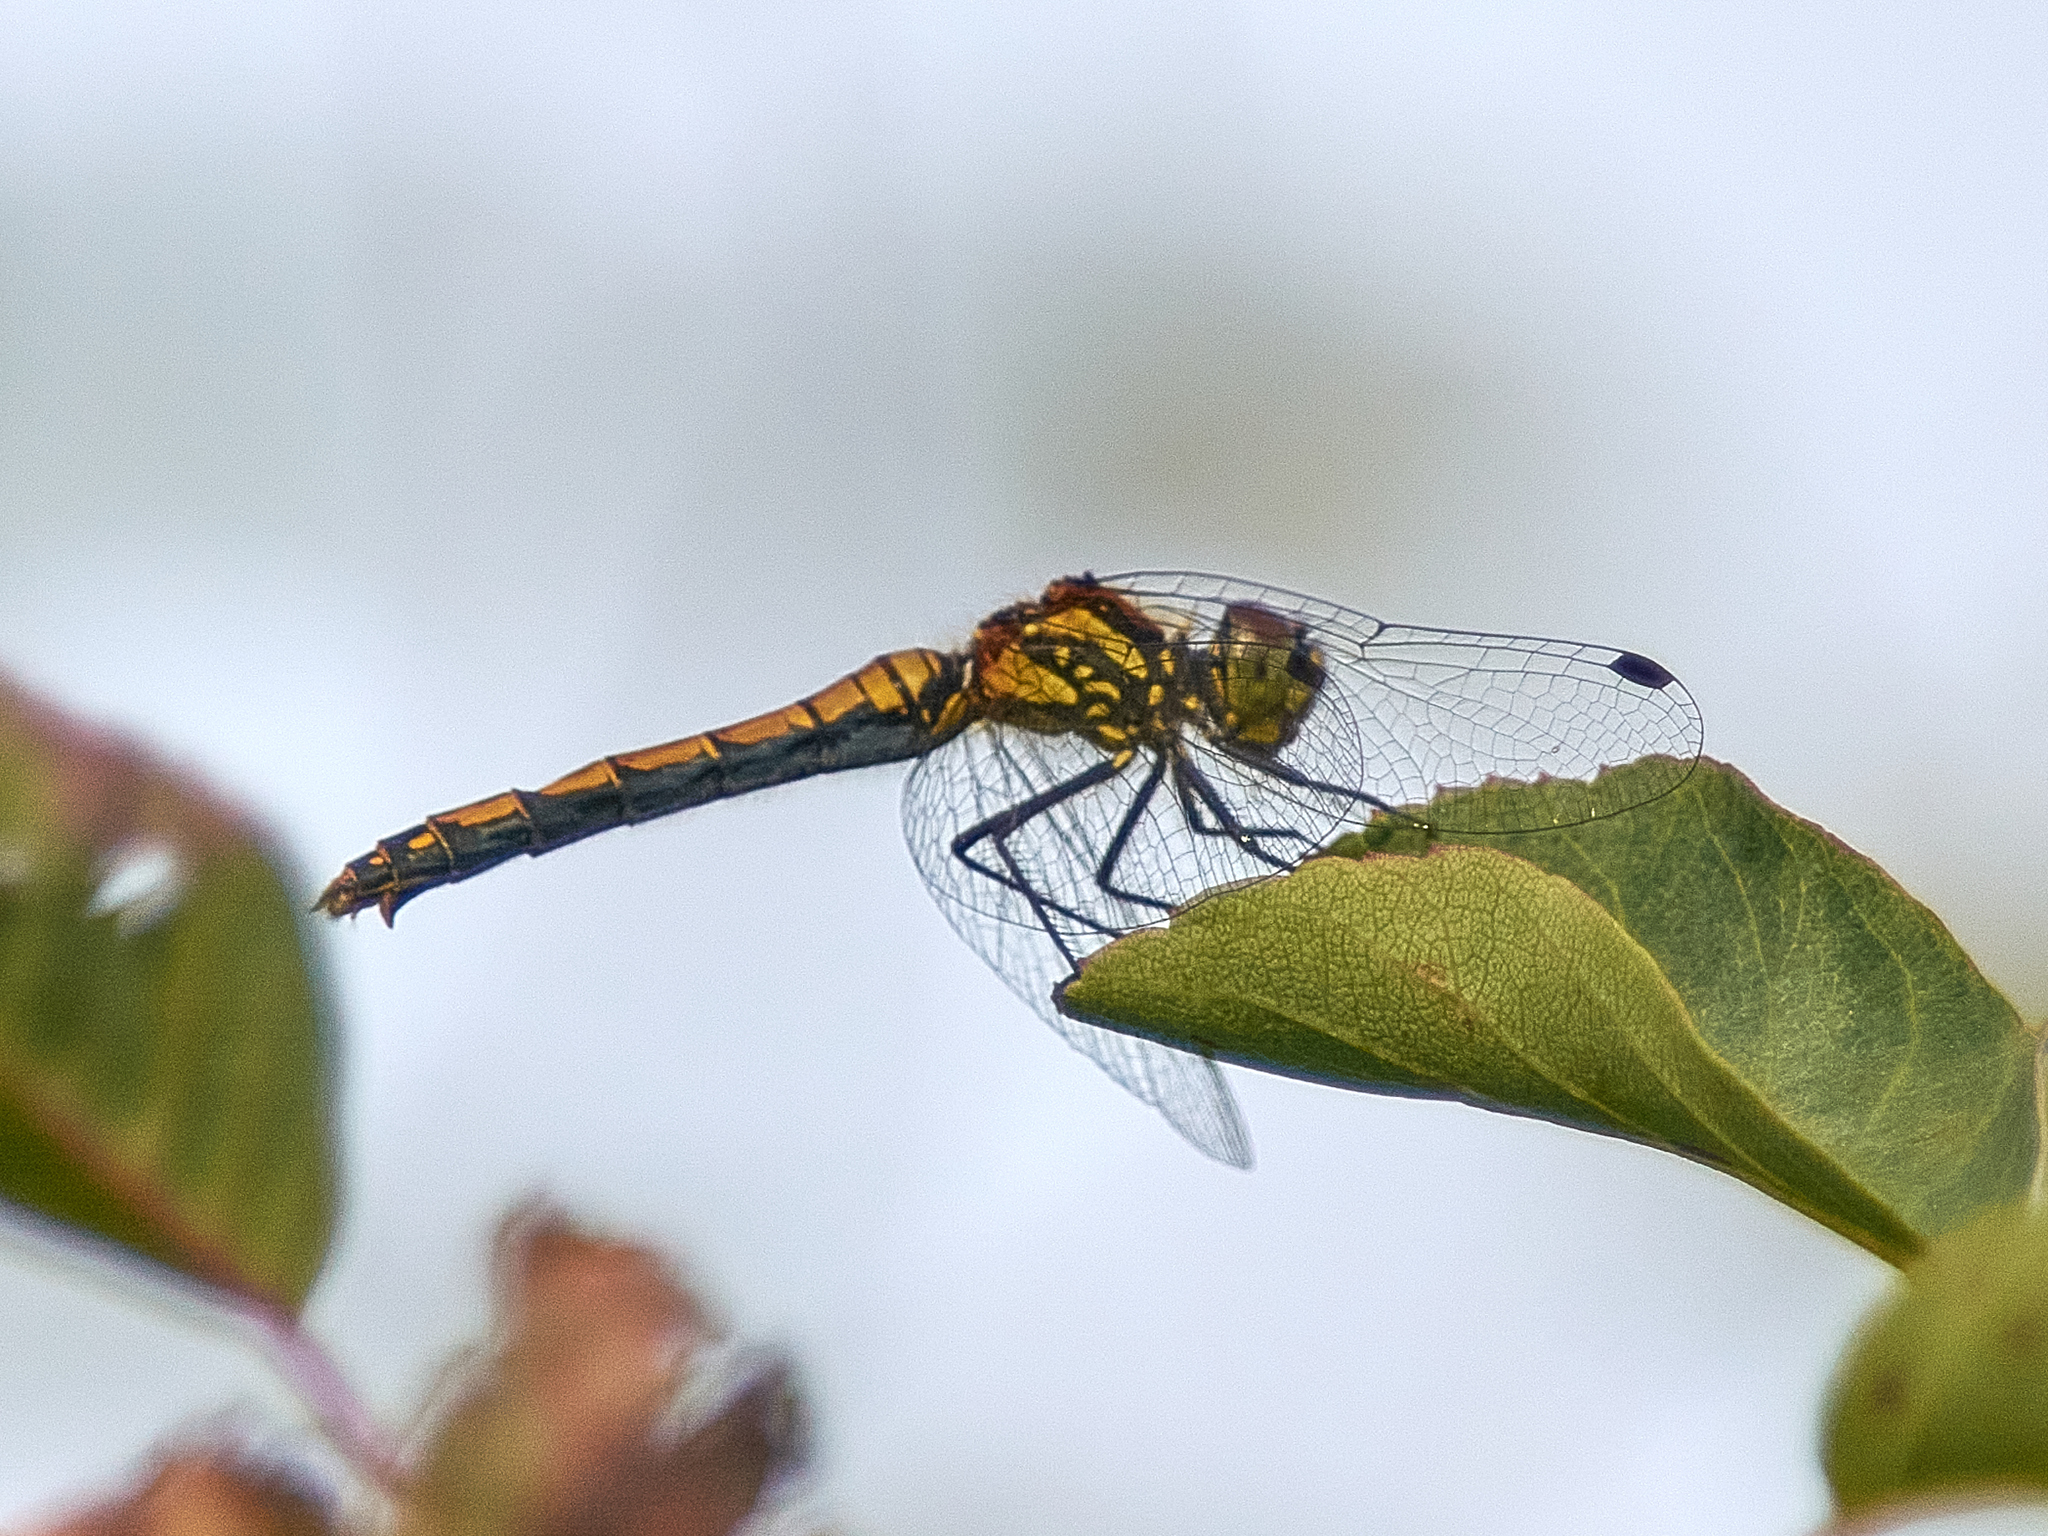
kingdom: Animalia
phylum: Arthropoda
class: Insecta
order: Odonata
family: Libellulidae
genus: Sympetrum
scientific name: Sympetrum danae
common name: Black darter
